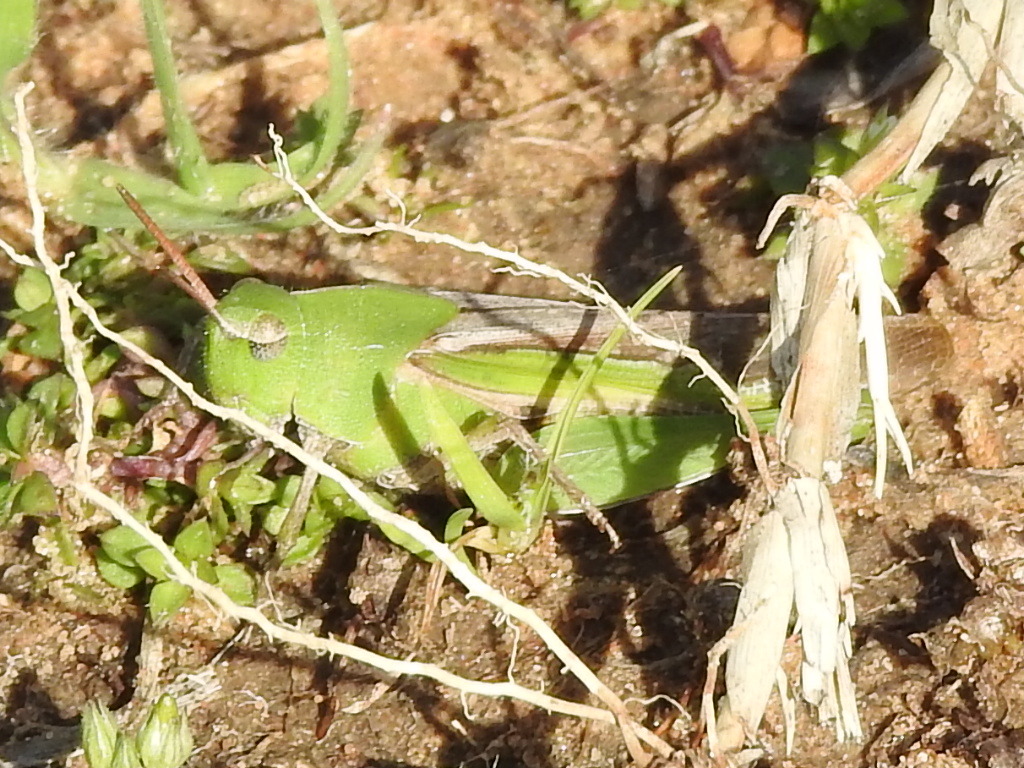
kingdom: Animalia
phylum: Arthropoda
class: Insecta
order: Orthoptera
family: Acrididae
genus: Chortophaga
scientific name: Chortophaga viridifasciata
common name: Green-striped grasshopper
